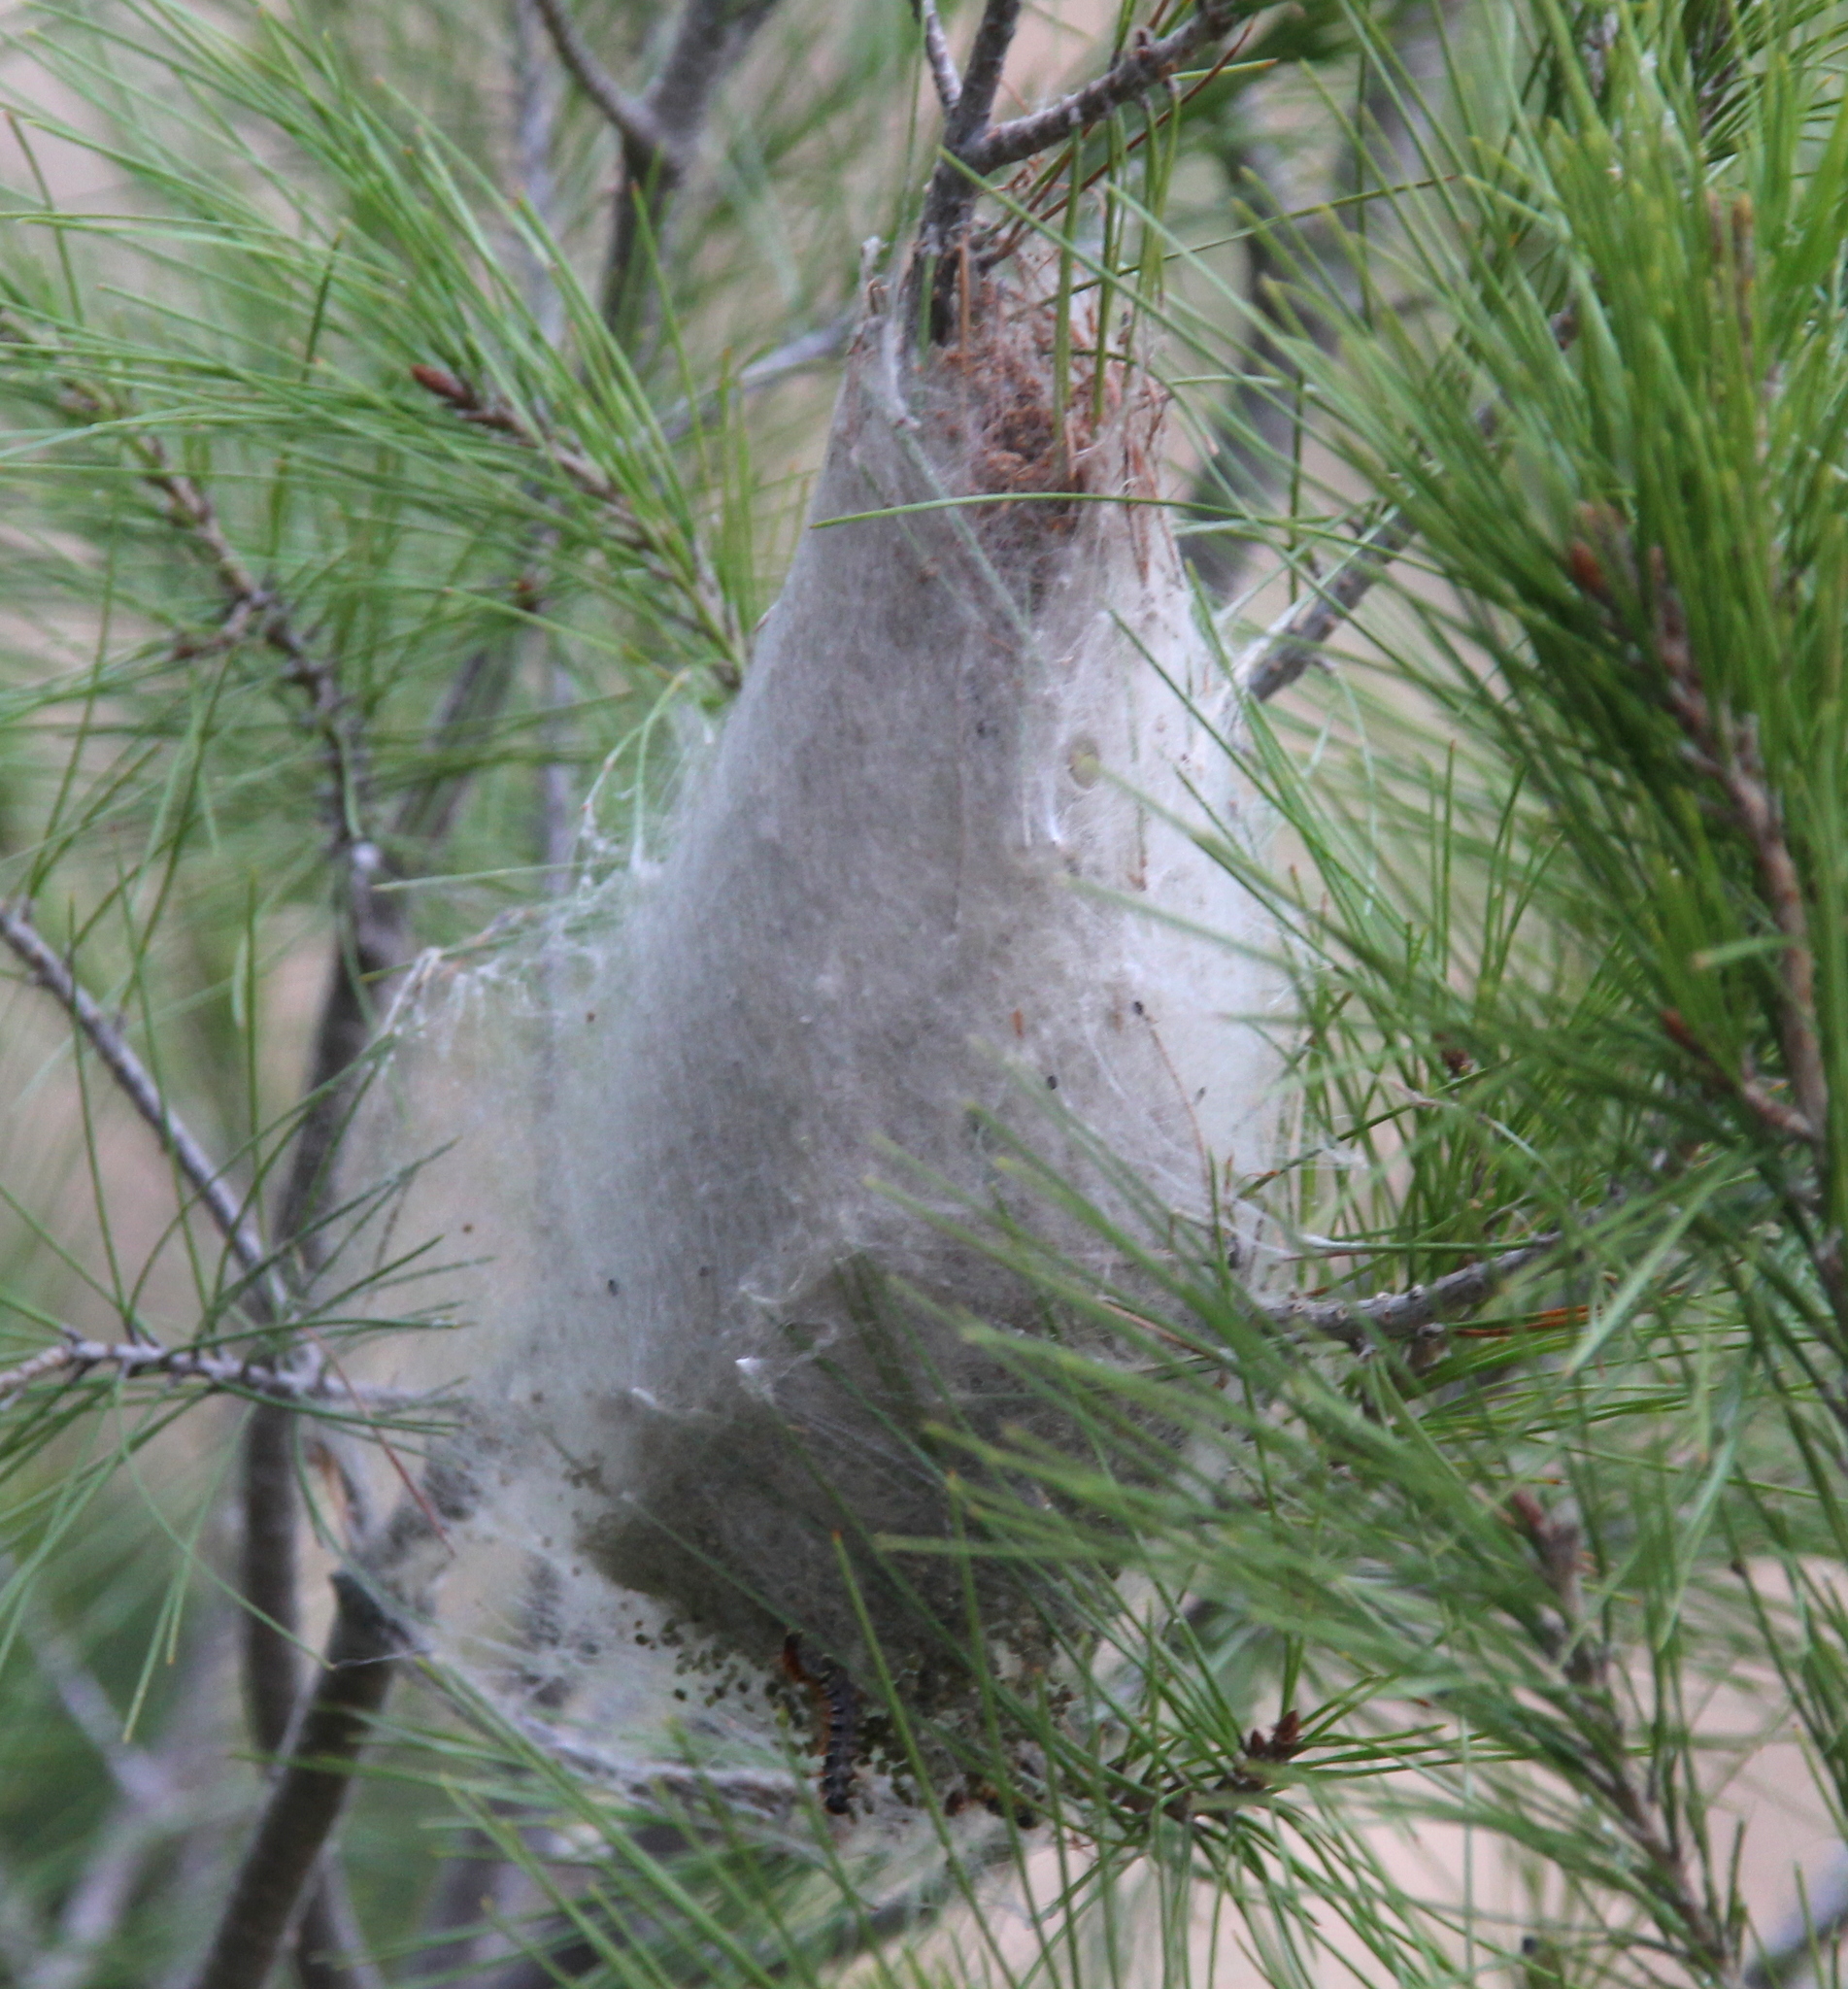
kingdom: Animalia
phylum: Arthropoda
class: Insecta
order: Lepidoptera
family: Notodontidae
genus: Thaumetopoea
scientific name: Thaumetopoea pityocampa
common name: Pine processionary
